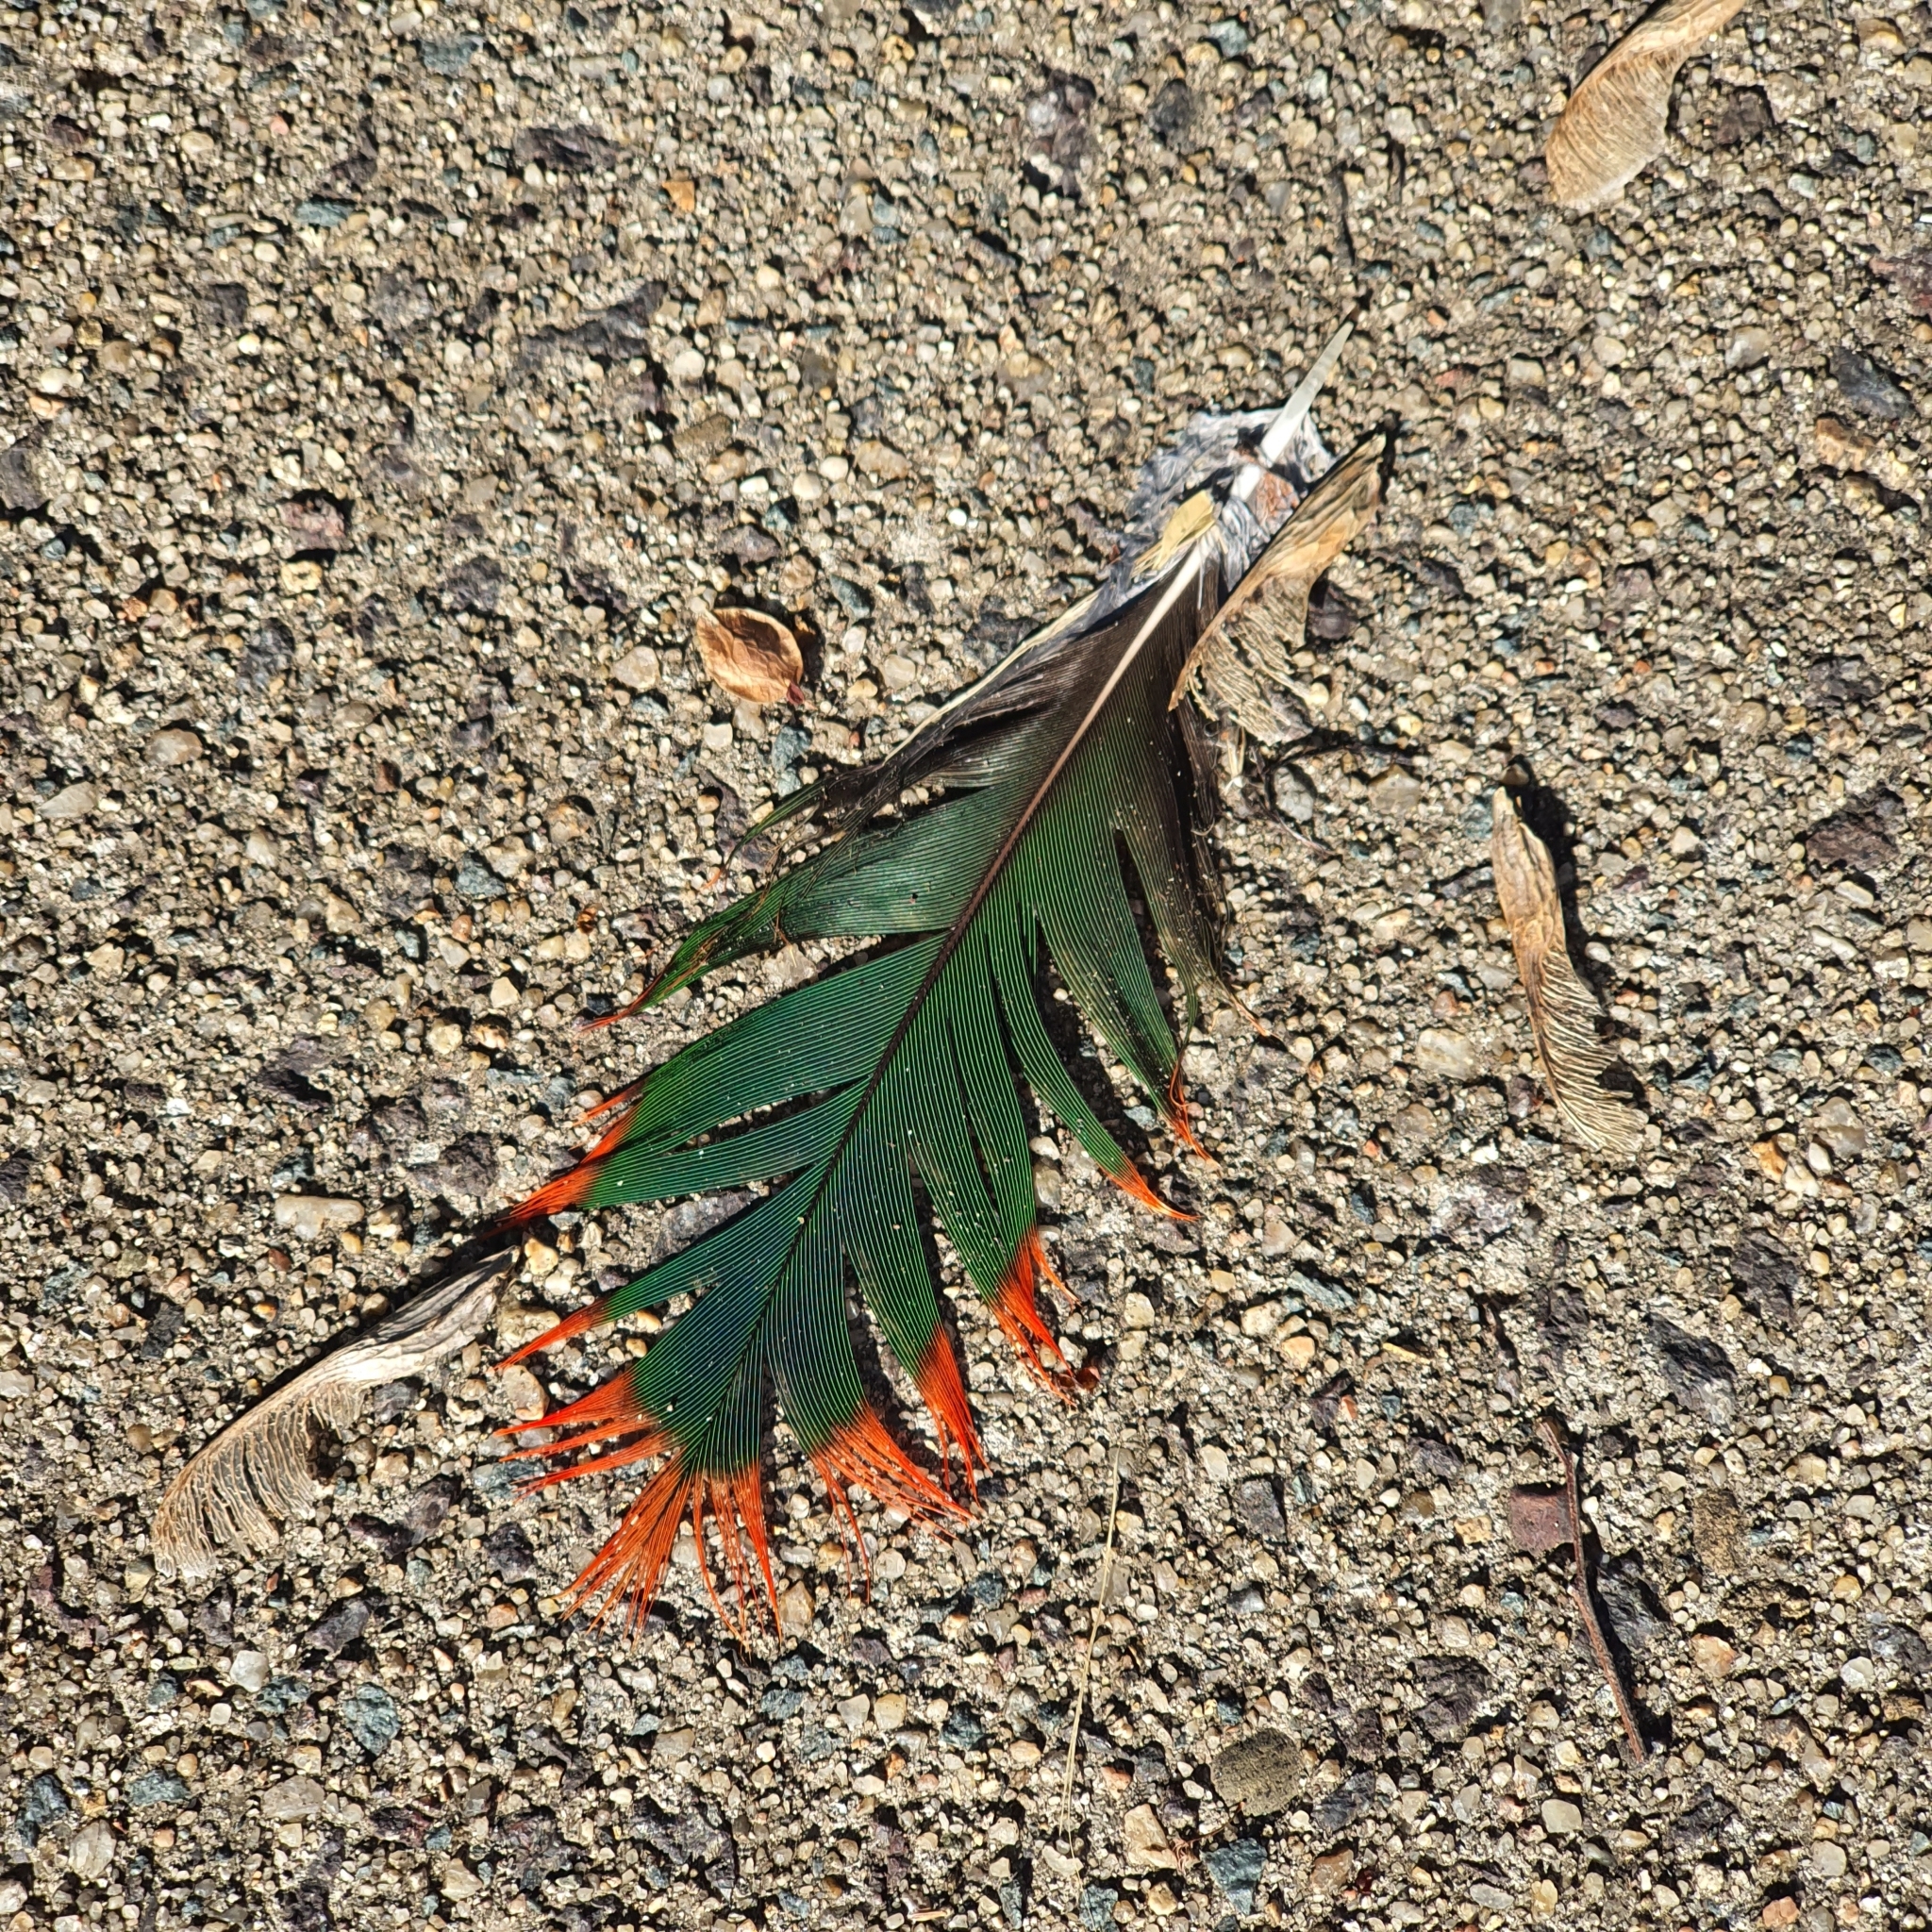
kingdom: Animalia
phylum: Chordata
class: Aves
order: Psittaciformes
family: Psittacidae
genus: Alisterus
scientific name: Alisterus scapularis
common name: Australian king parrot
